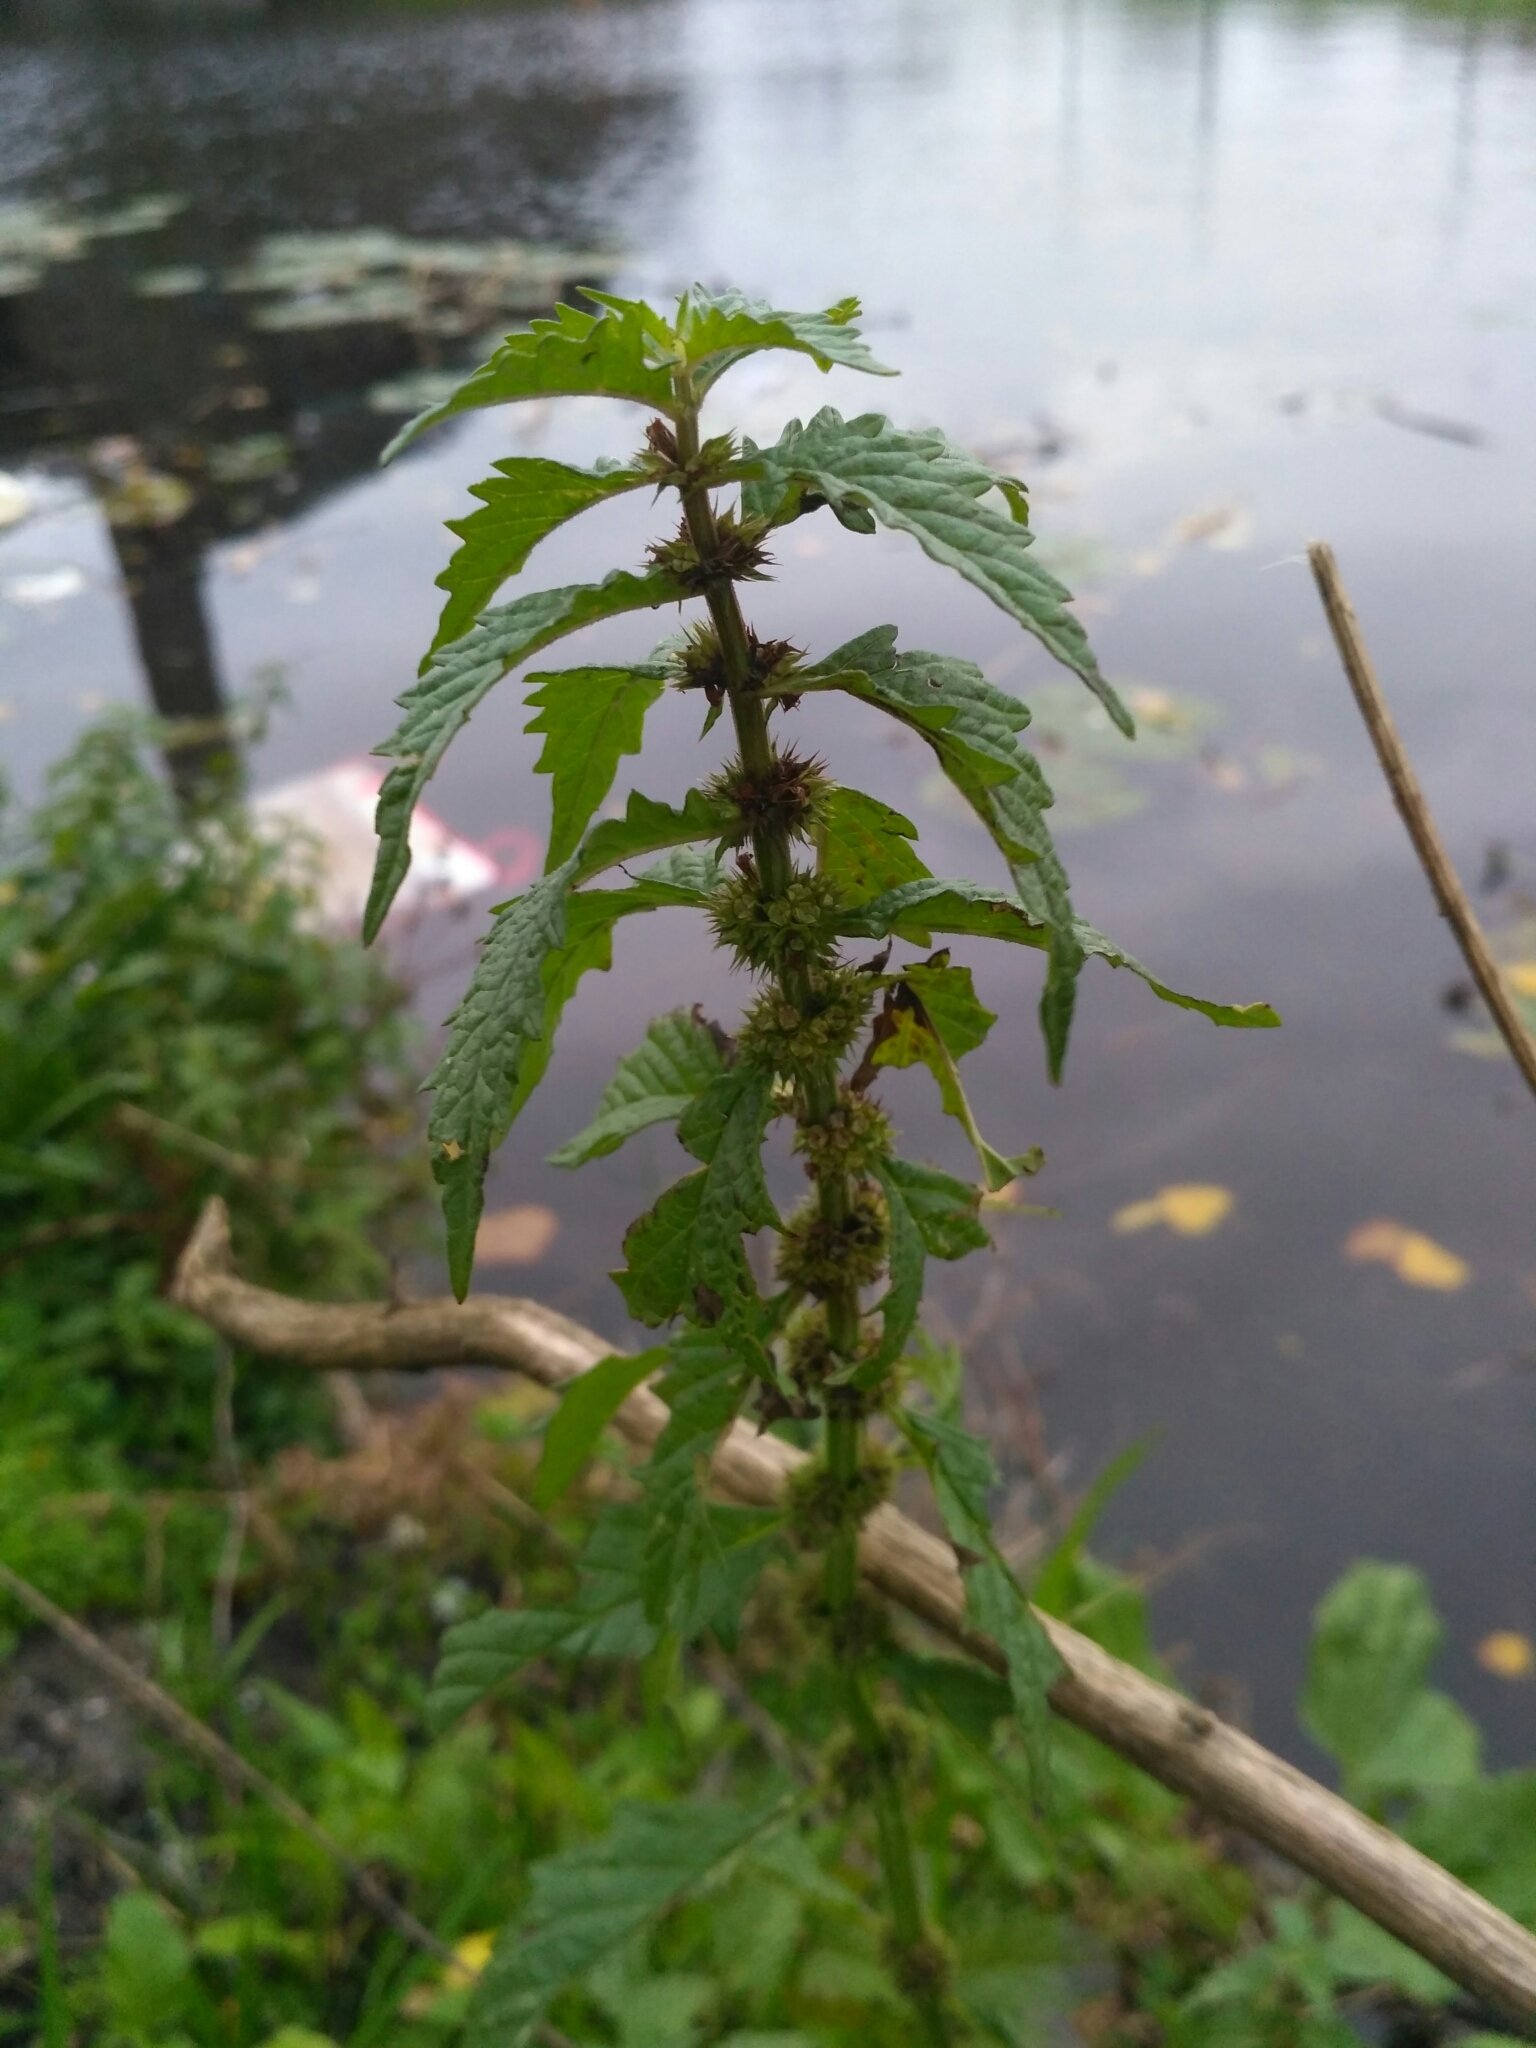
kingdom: Plantae
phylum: Tracheophyta
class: Magnoliopsida
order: Lamiales
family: Lamiaceae
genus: Lycopus
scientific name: Lycopus europaeus
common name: European bugleweed
